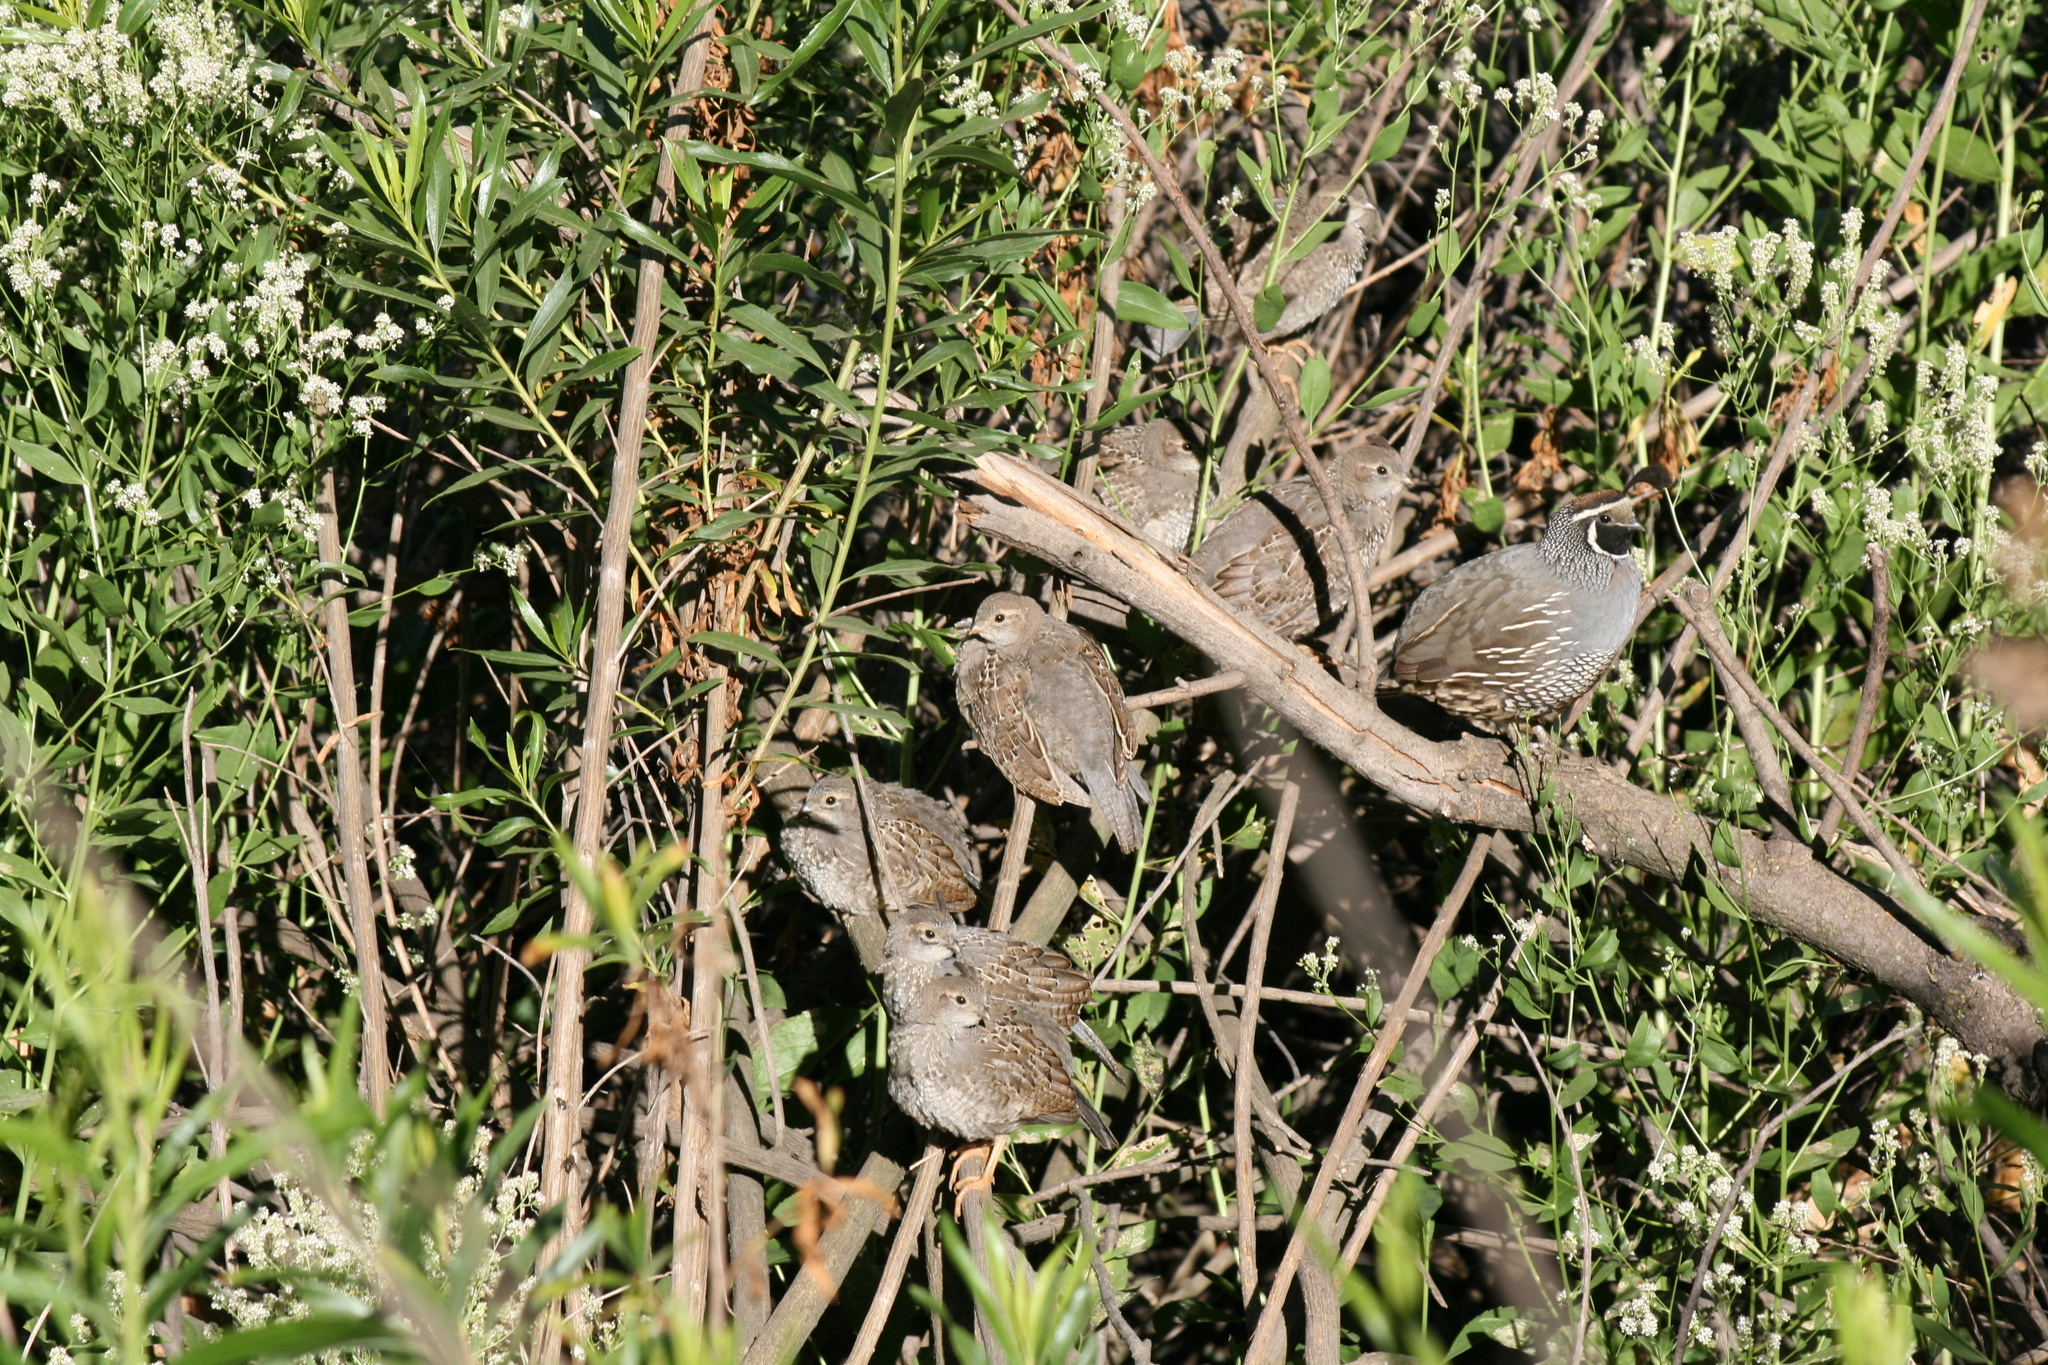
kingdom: Animalia
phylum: Chordata
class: Aves
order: Galliformes
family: Odontophoridae
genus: Callipepla
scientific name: Callipepla californica
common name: California quail
